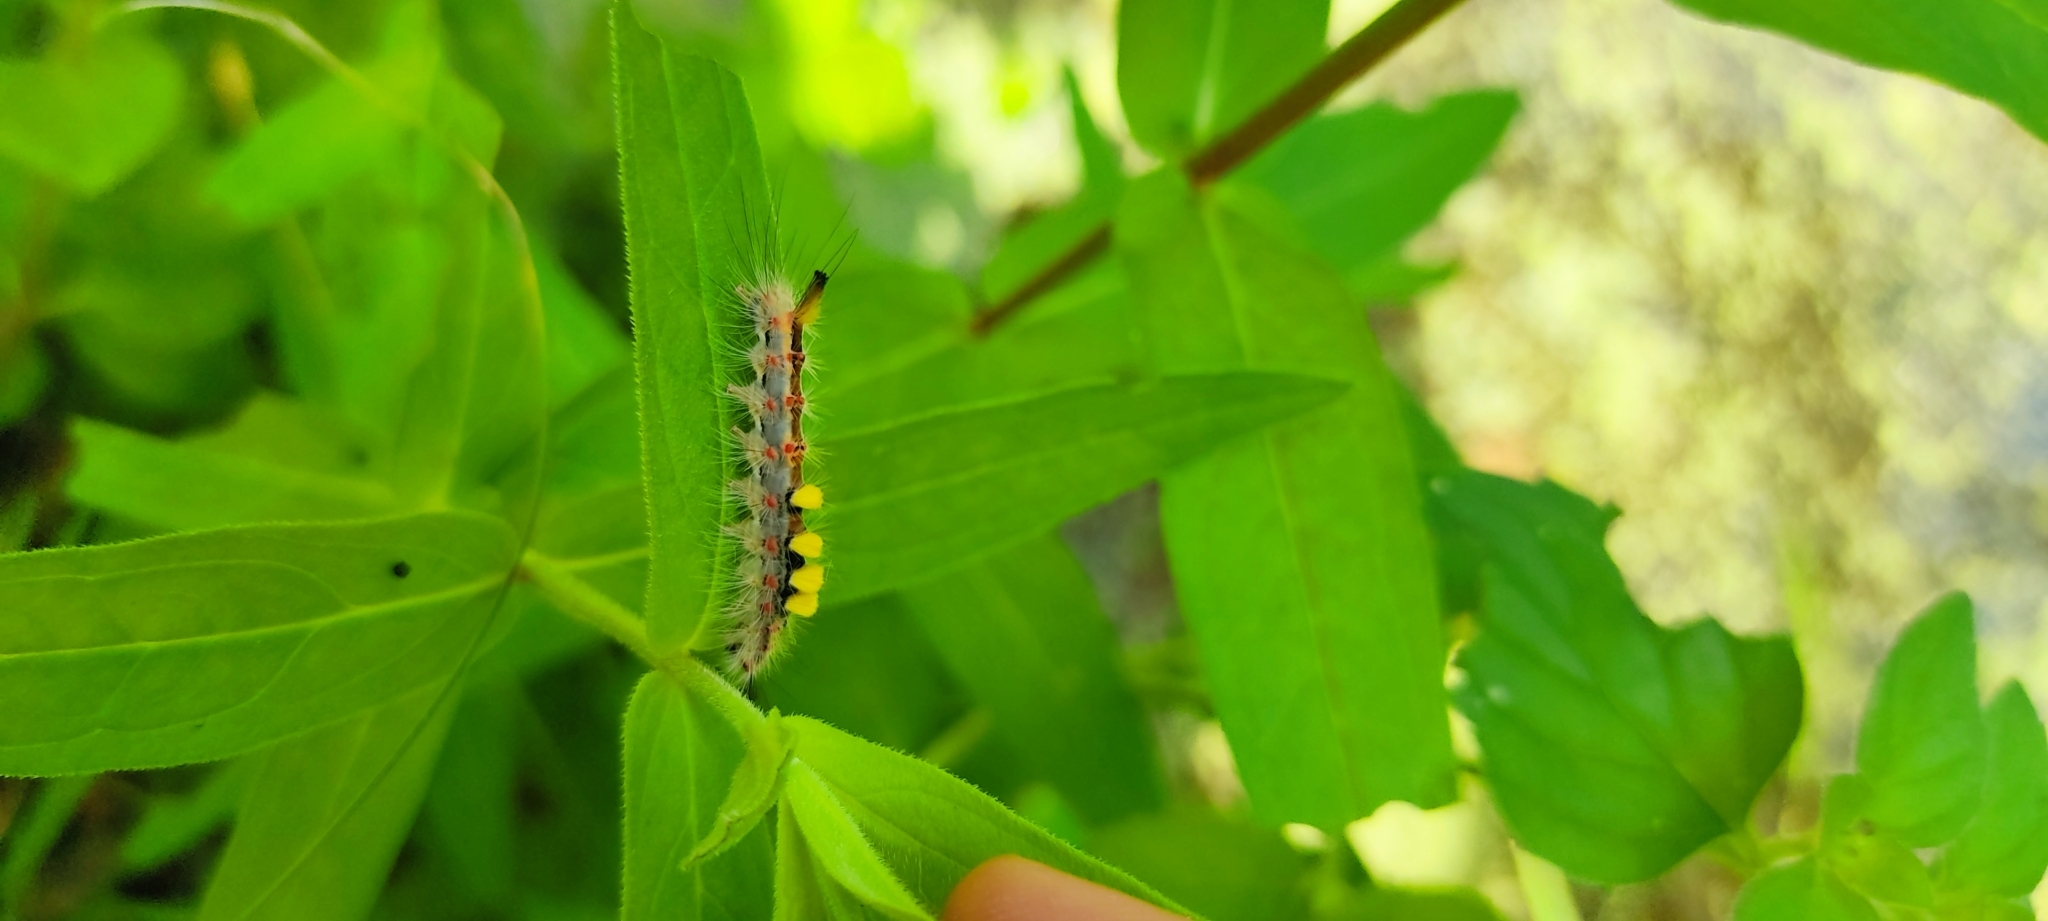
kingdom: Animalia
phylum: Arthropoda
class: Insecta
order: Lepidoptera
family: Erebidae
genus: Orgyia
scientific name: Orgyia antiqua
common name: Vapourer
